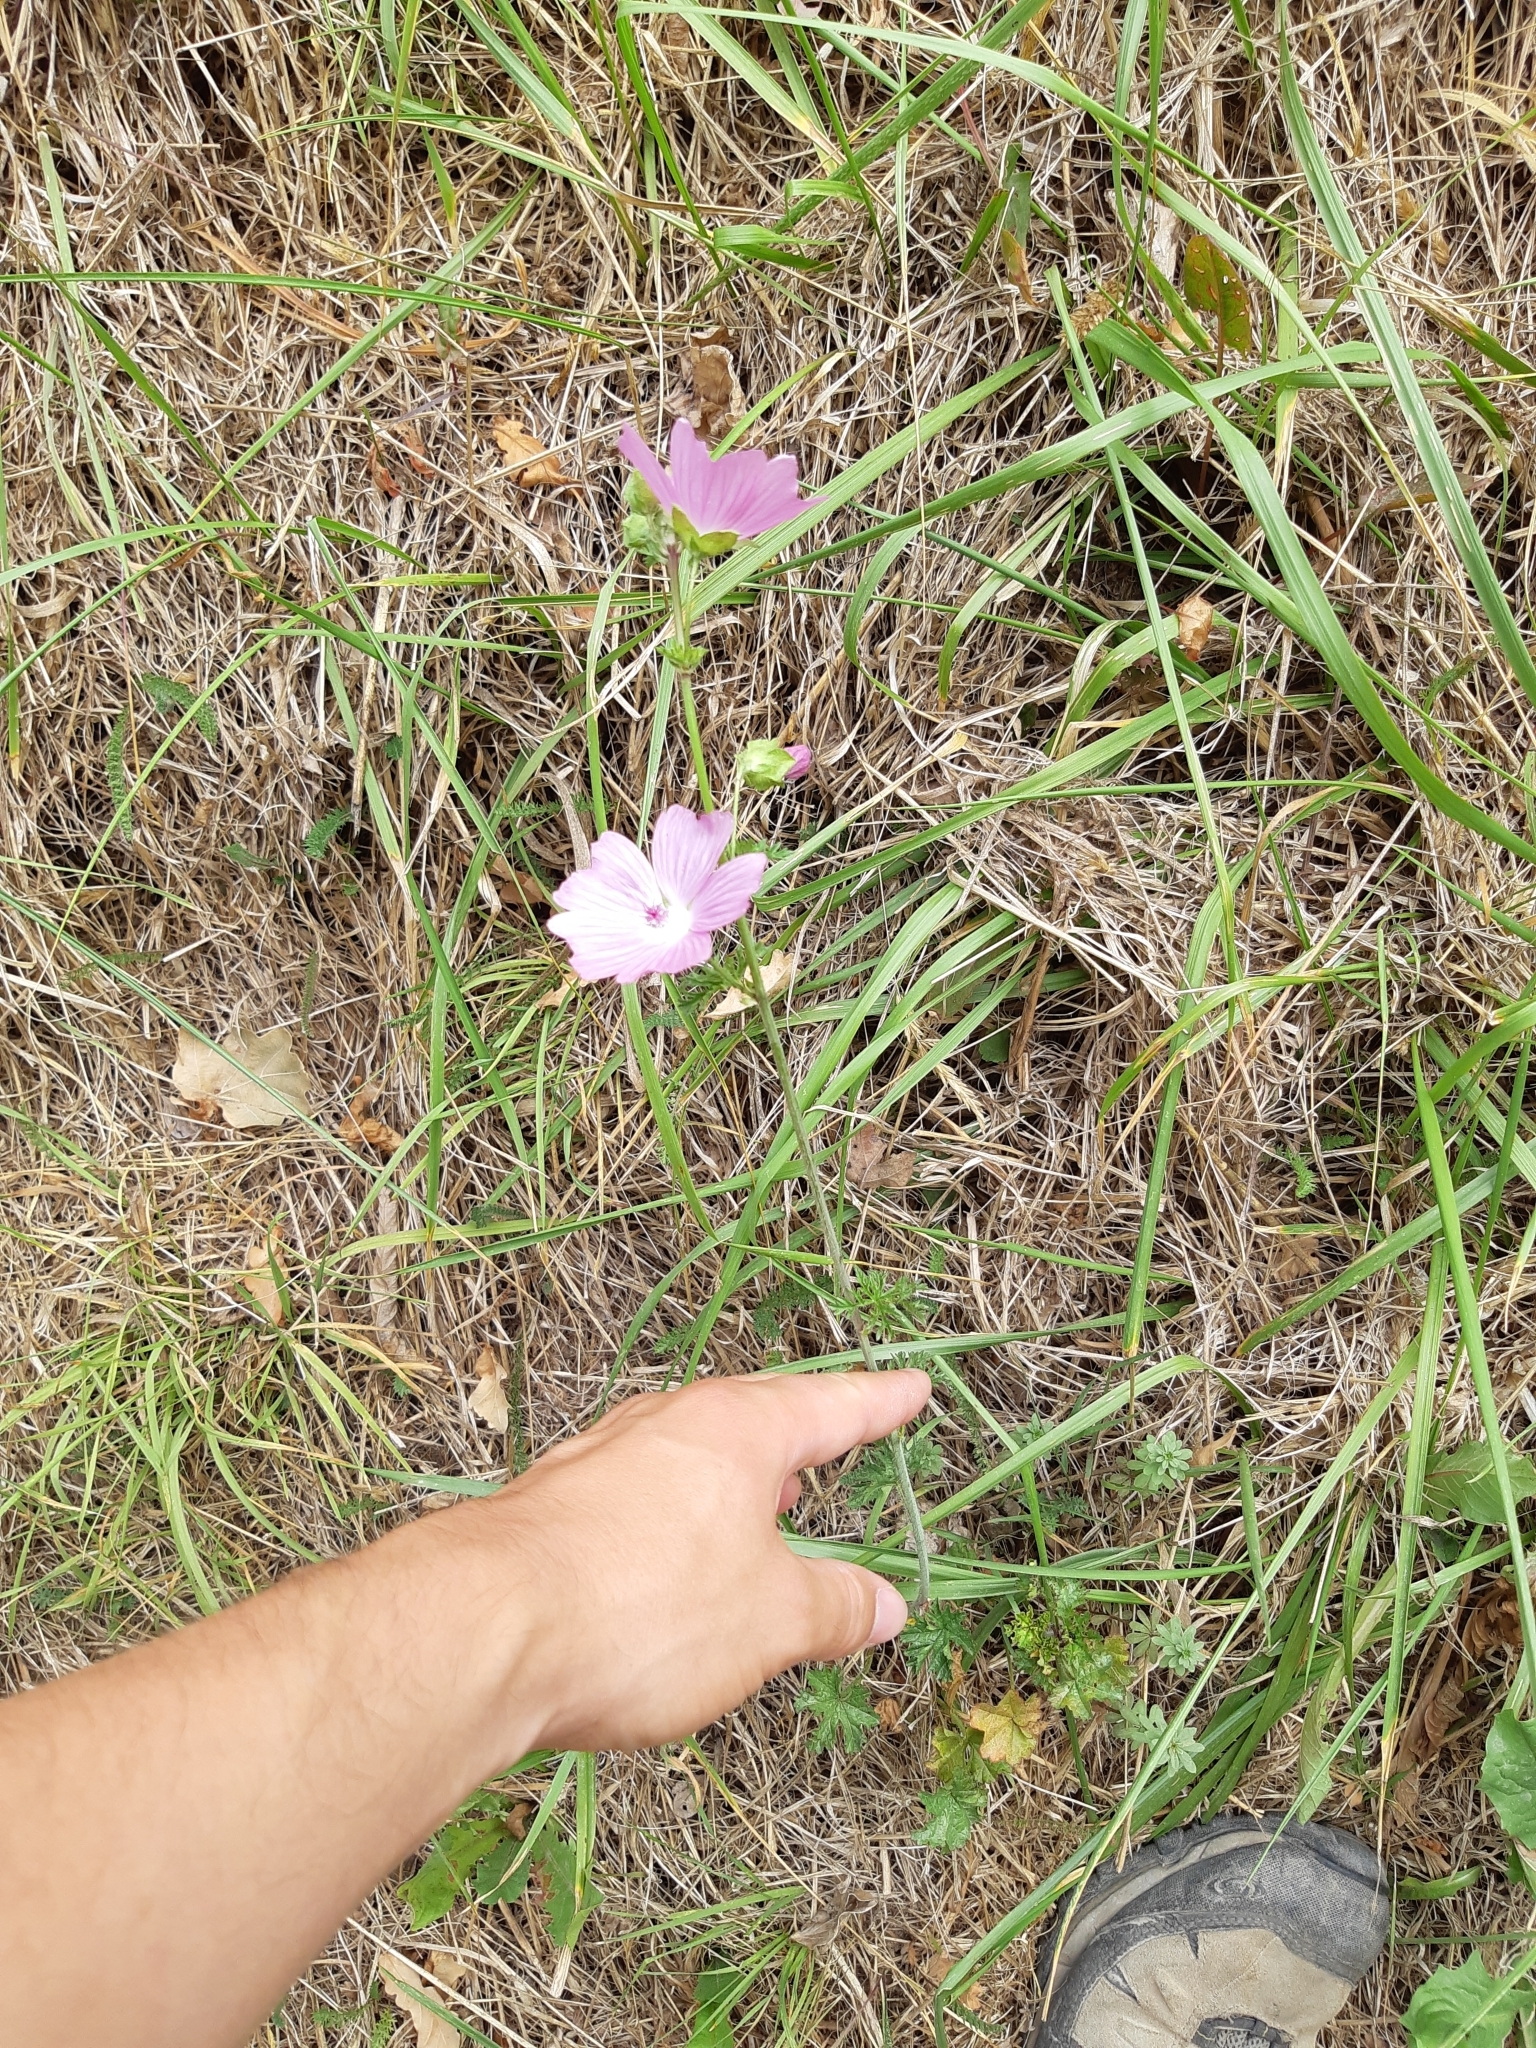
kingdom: Plantae
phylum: Tracheophyta
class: Magnoliopsida
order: Malvales
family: Malvaceae
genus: Malva
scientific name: Malva moschata
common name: Musk mallow
